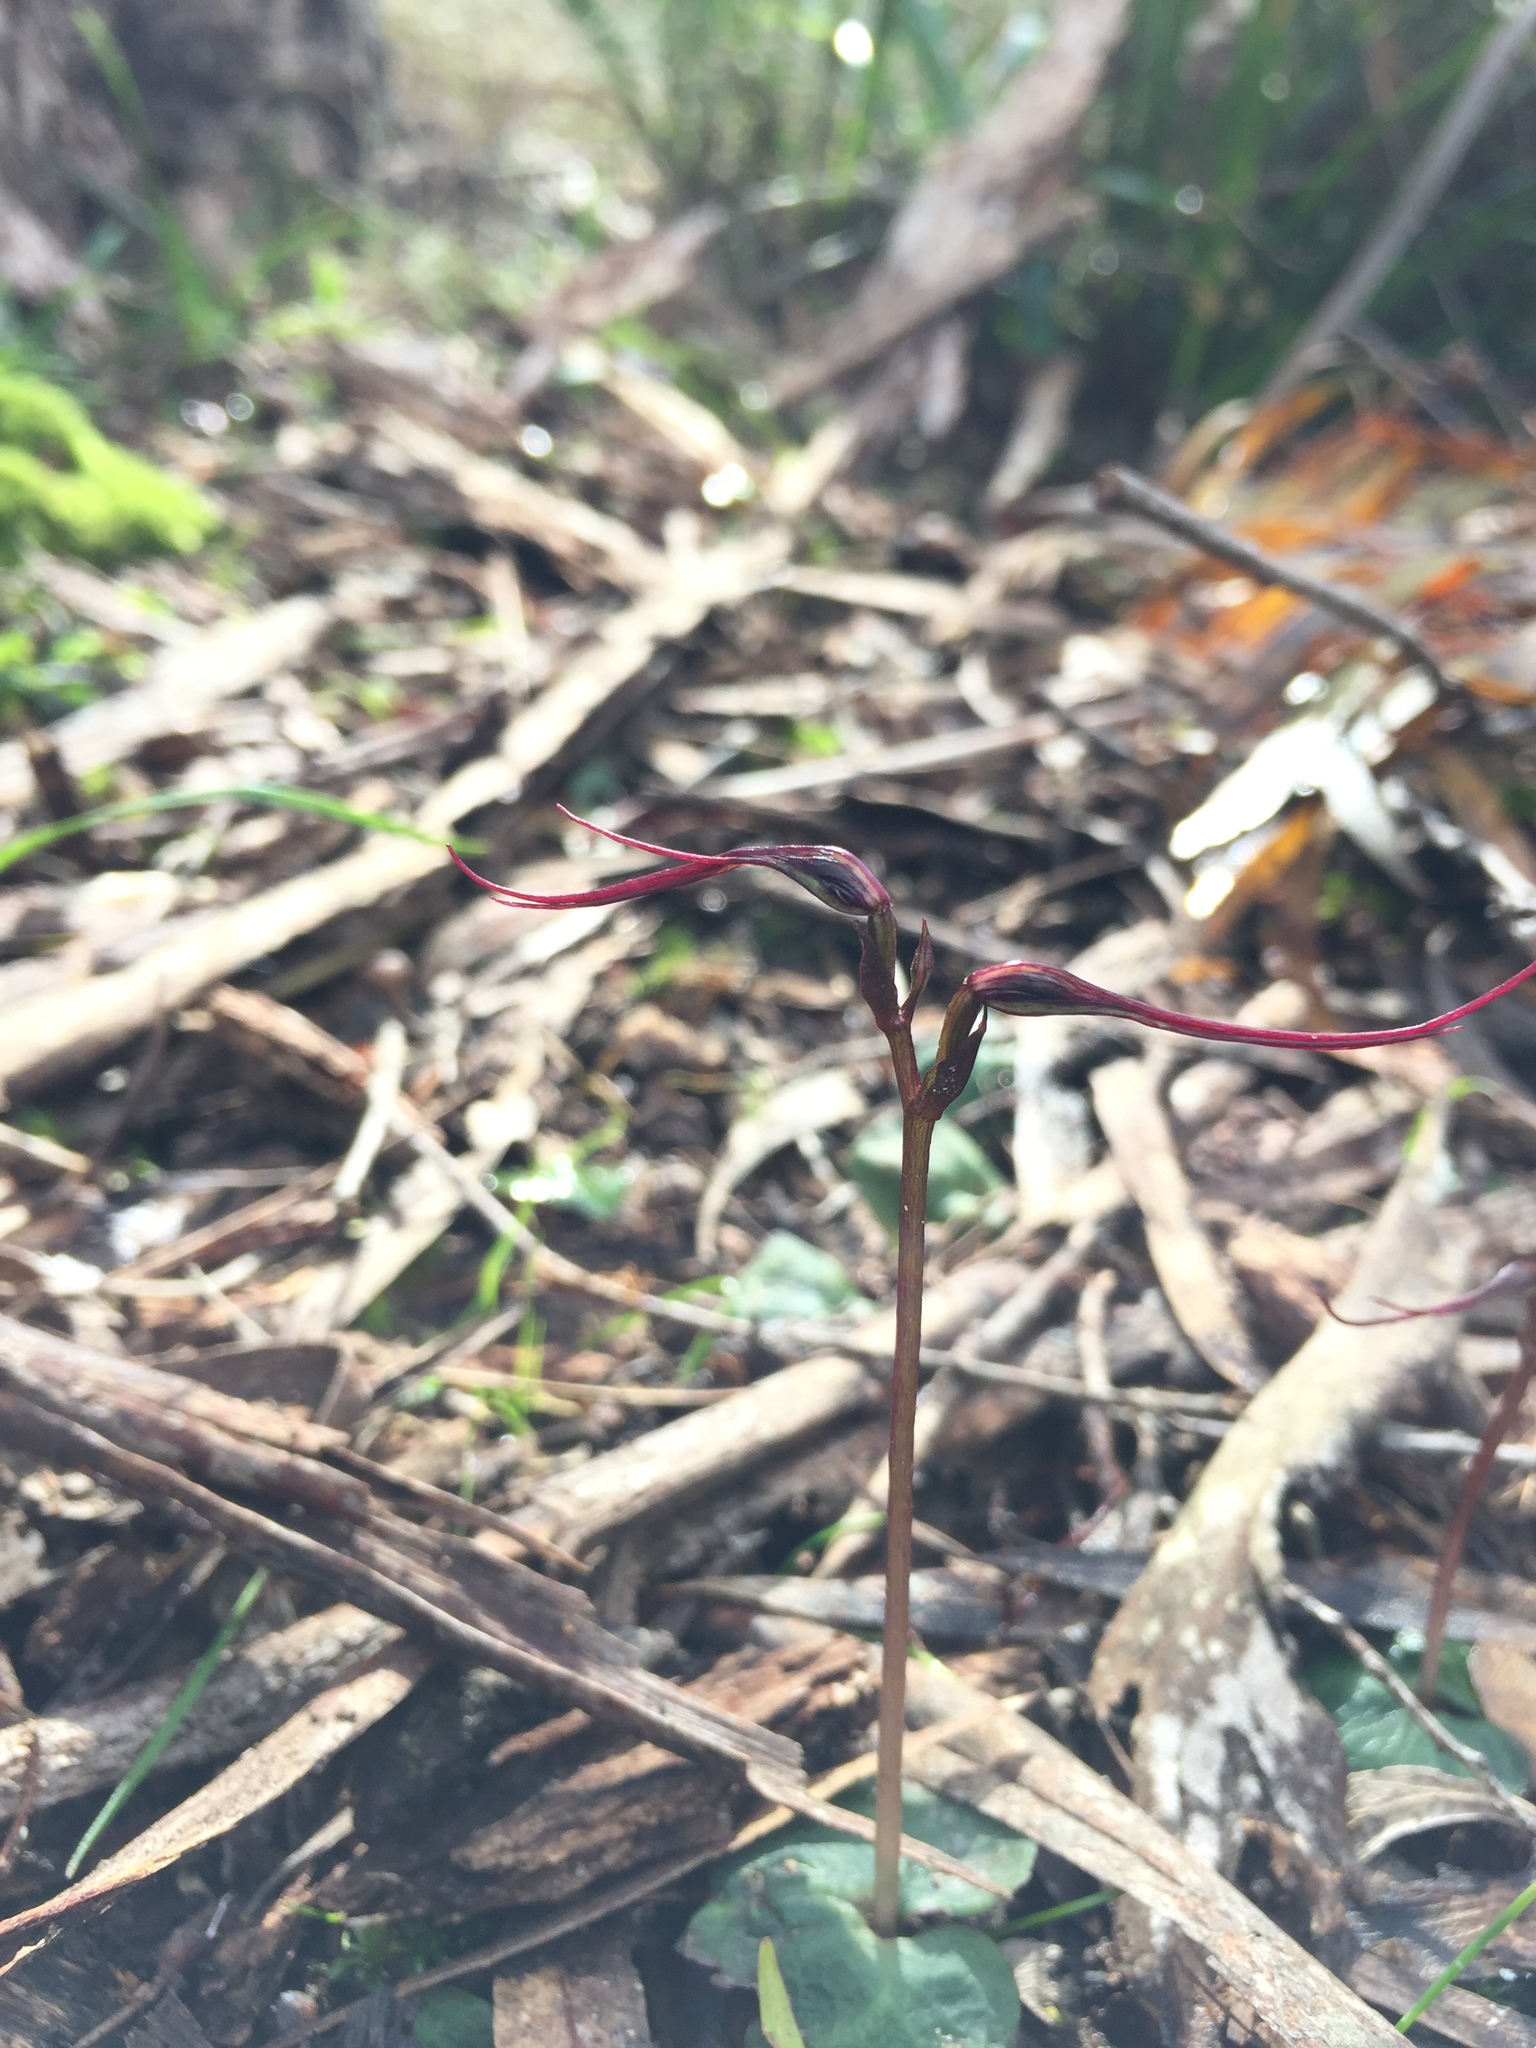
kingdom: Plantae
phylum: Tracheophyta
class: Liliopsida
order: Asparagales
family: Orchidaceae
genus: Acianthus
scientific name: Acianthus caudatus
